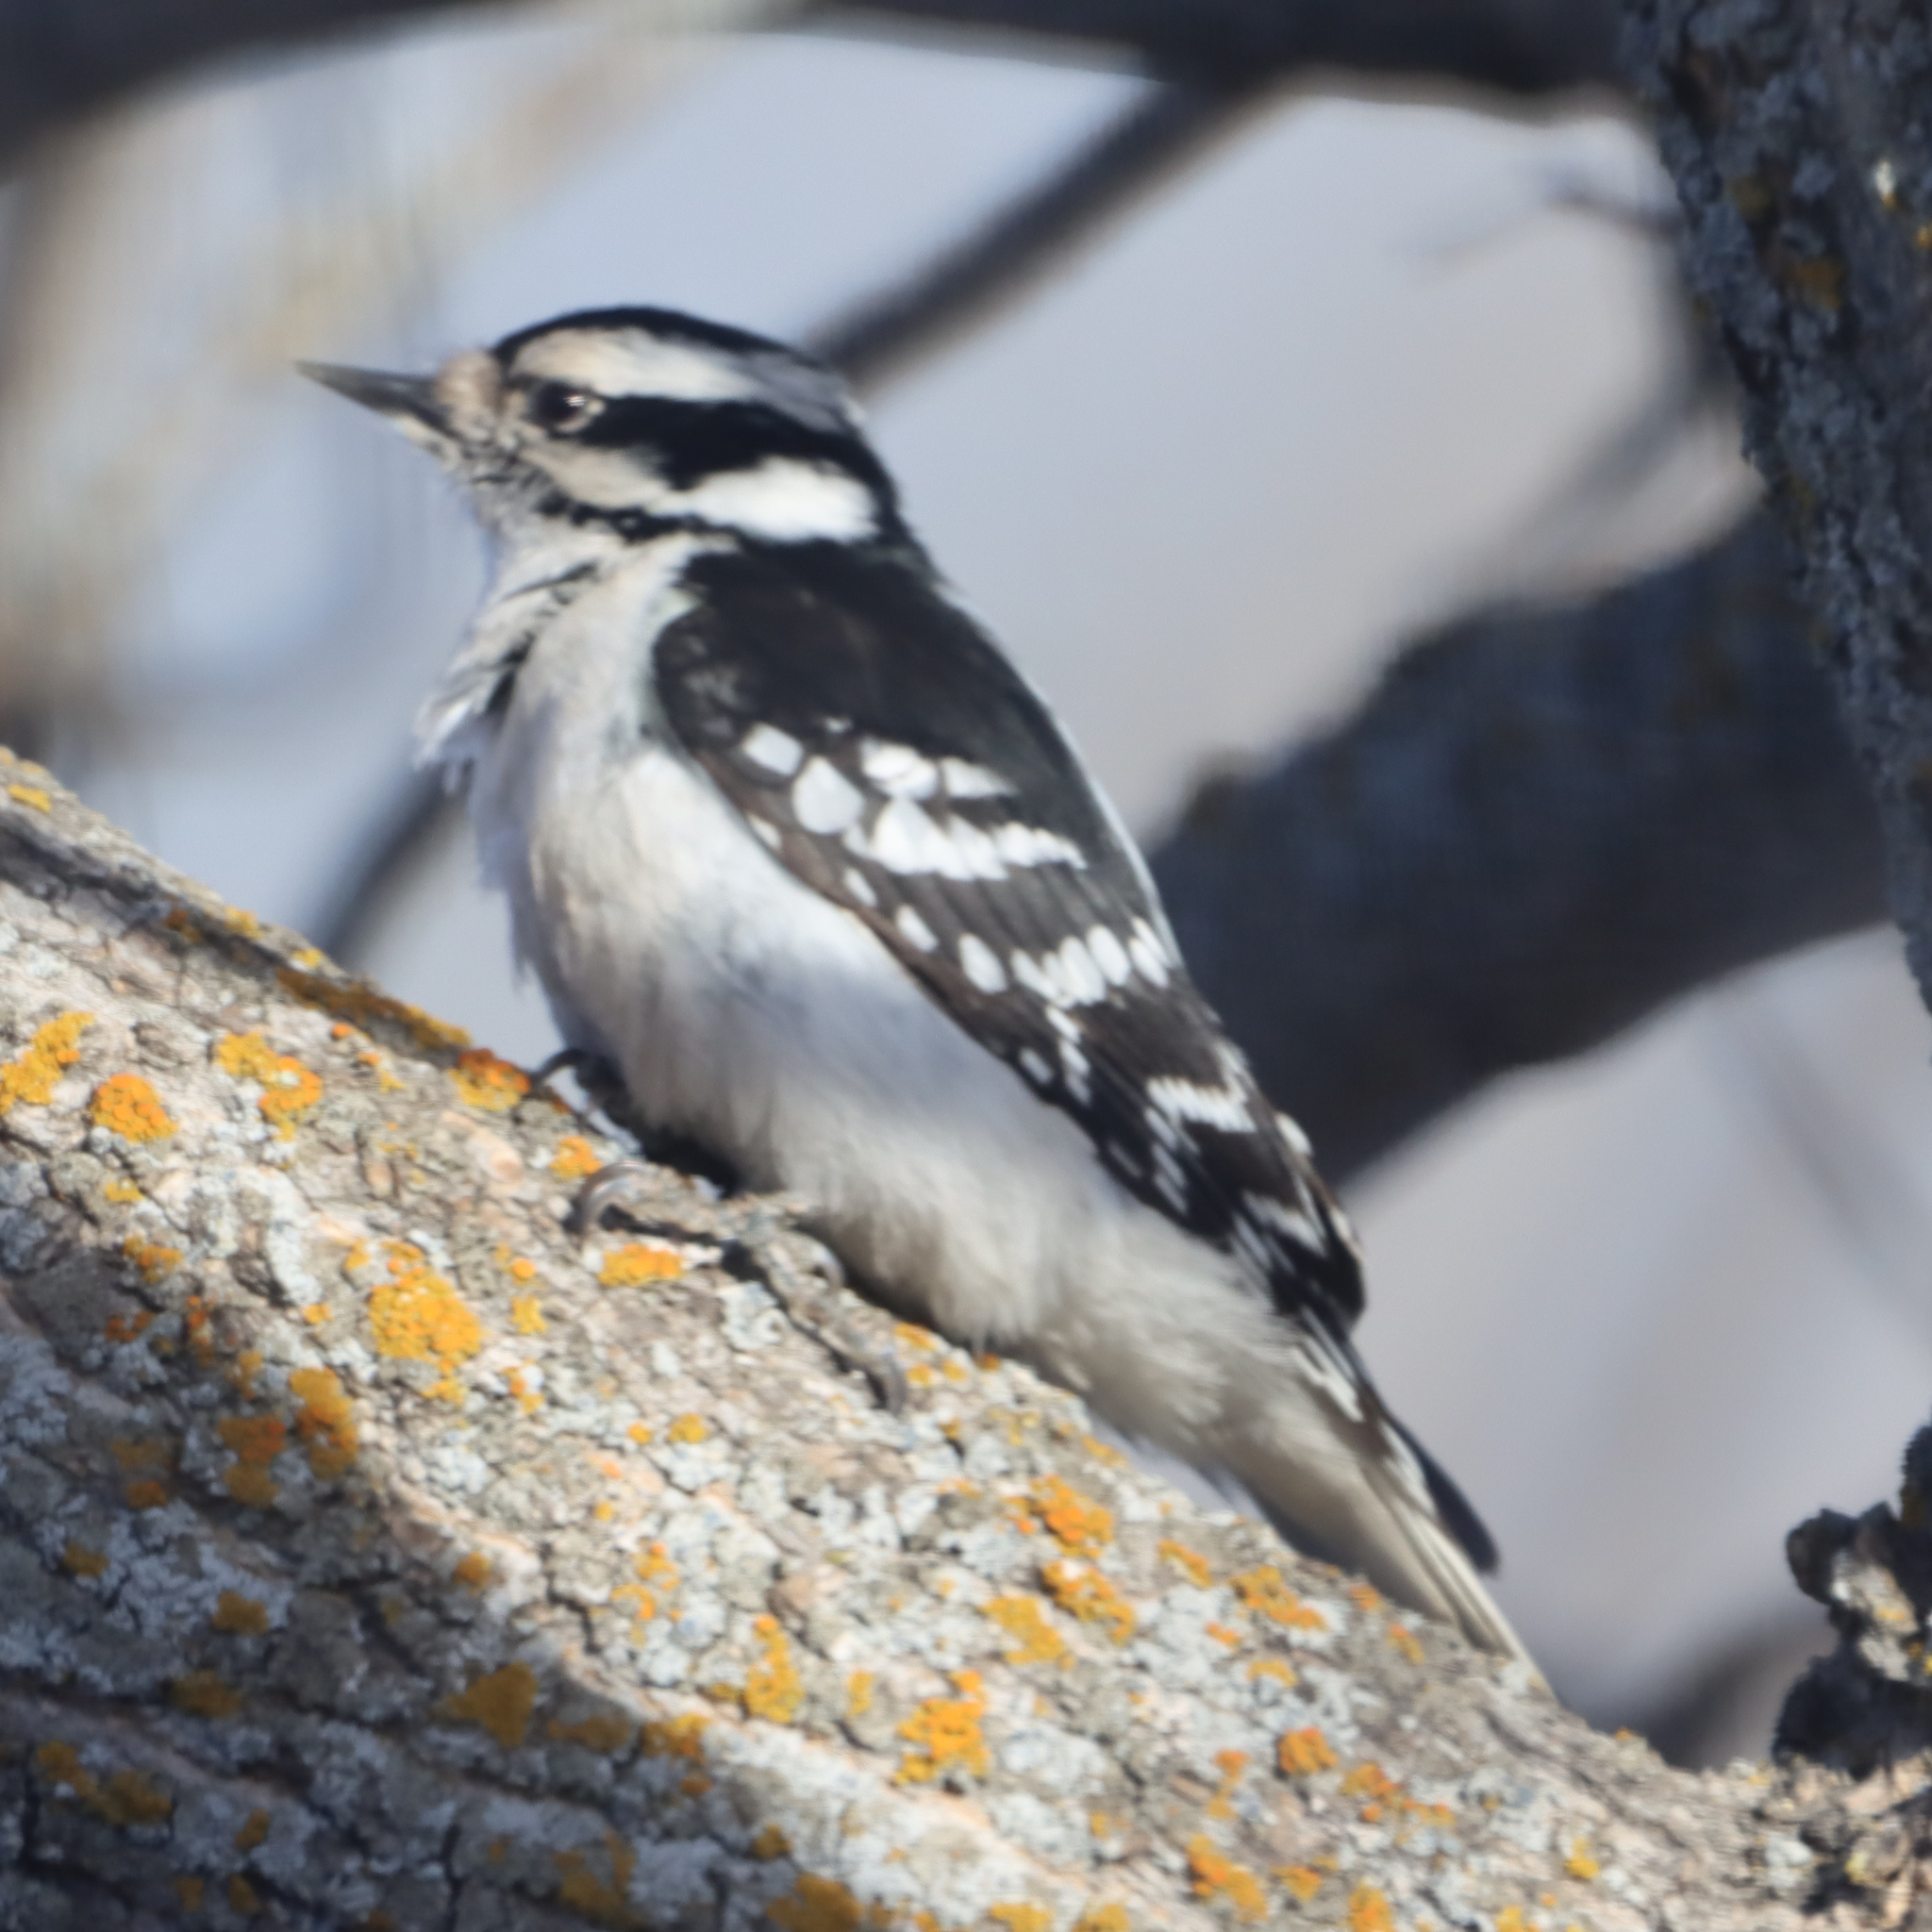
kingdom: Animalia
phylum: Chordata
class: Aves
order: Piciformes
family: Picidae
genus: Dryobates
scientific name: Dryobates pubescens
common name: Downy woodpecker
